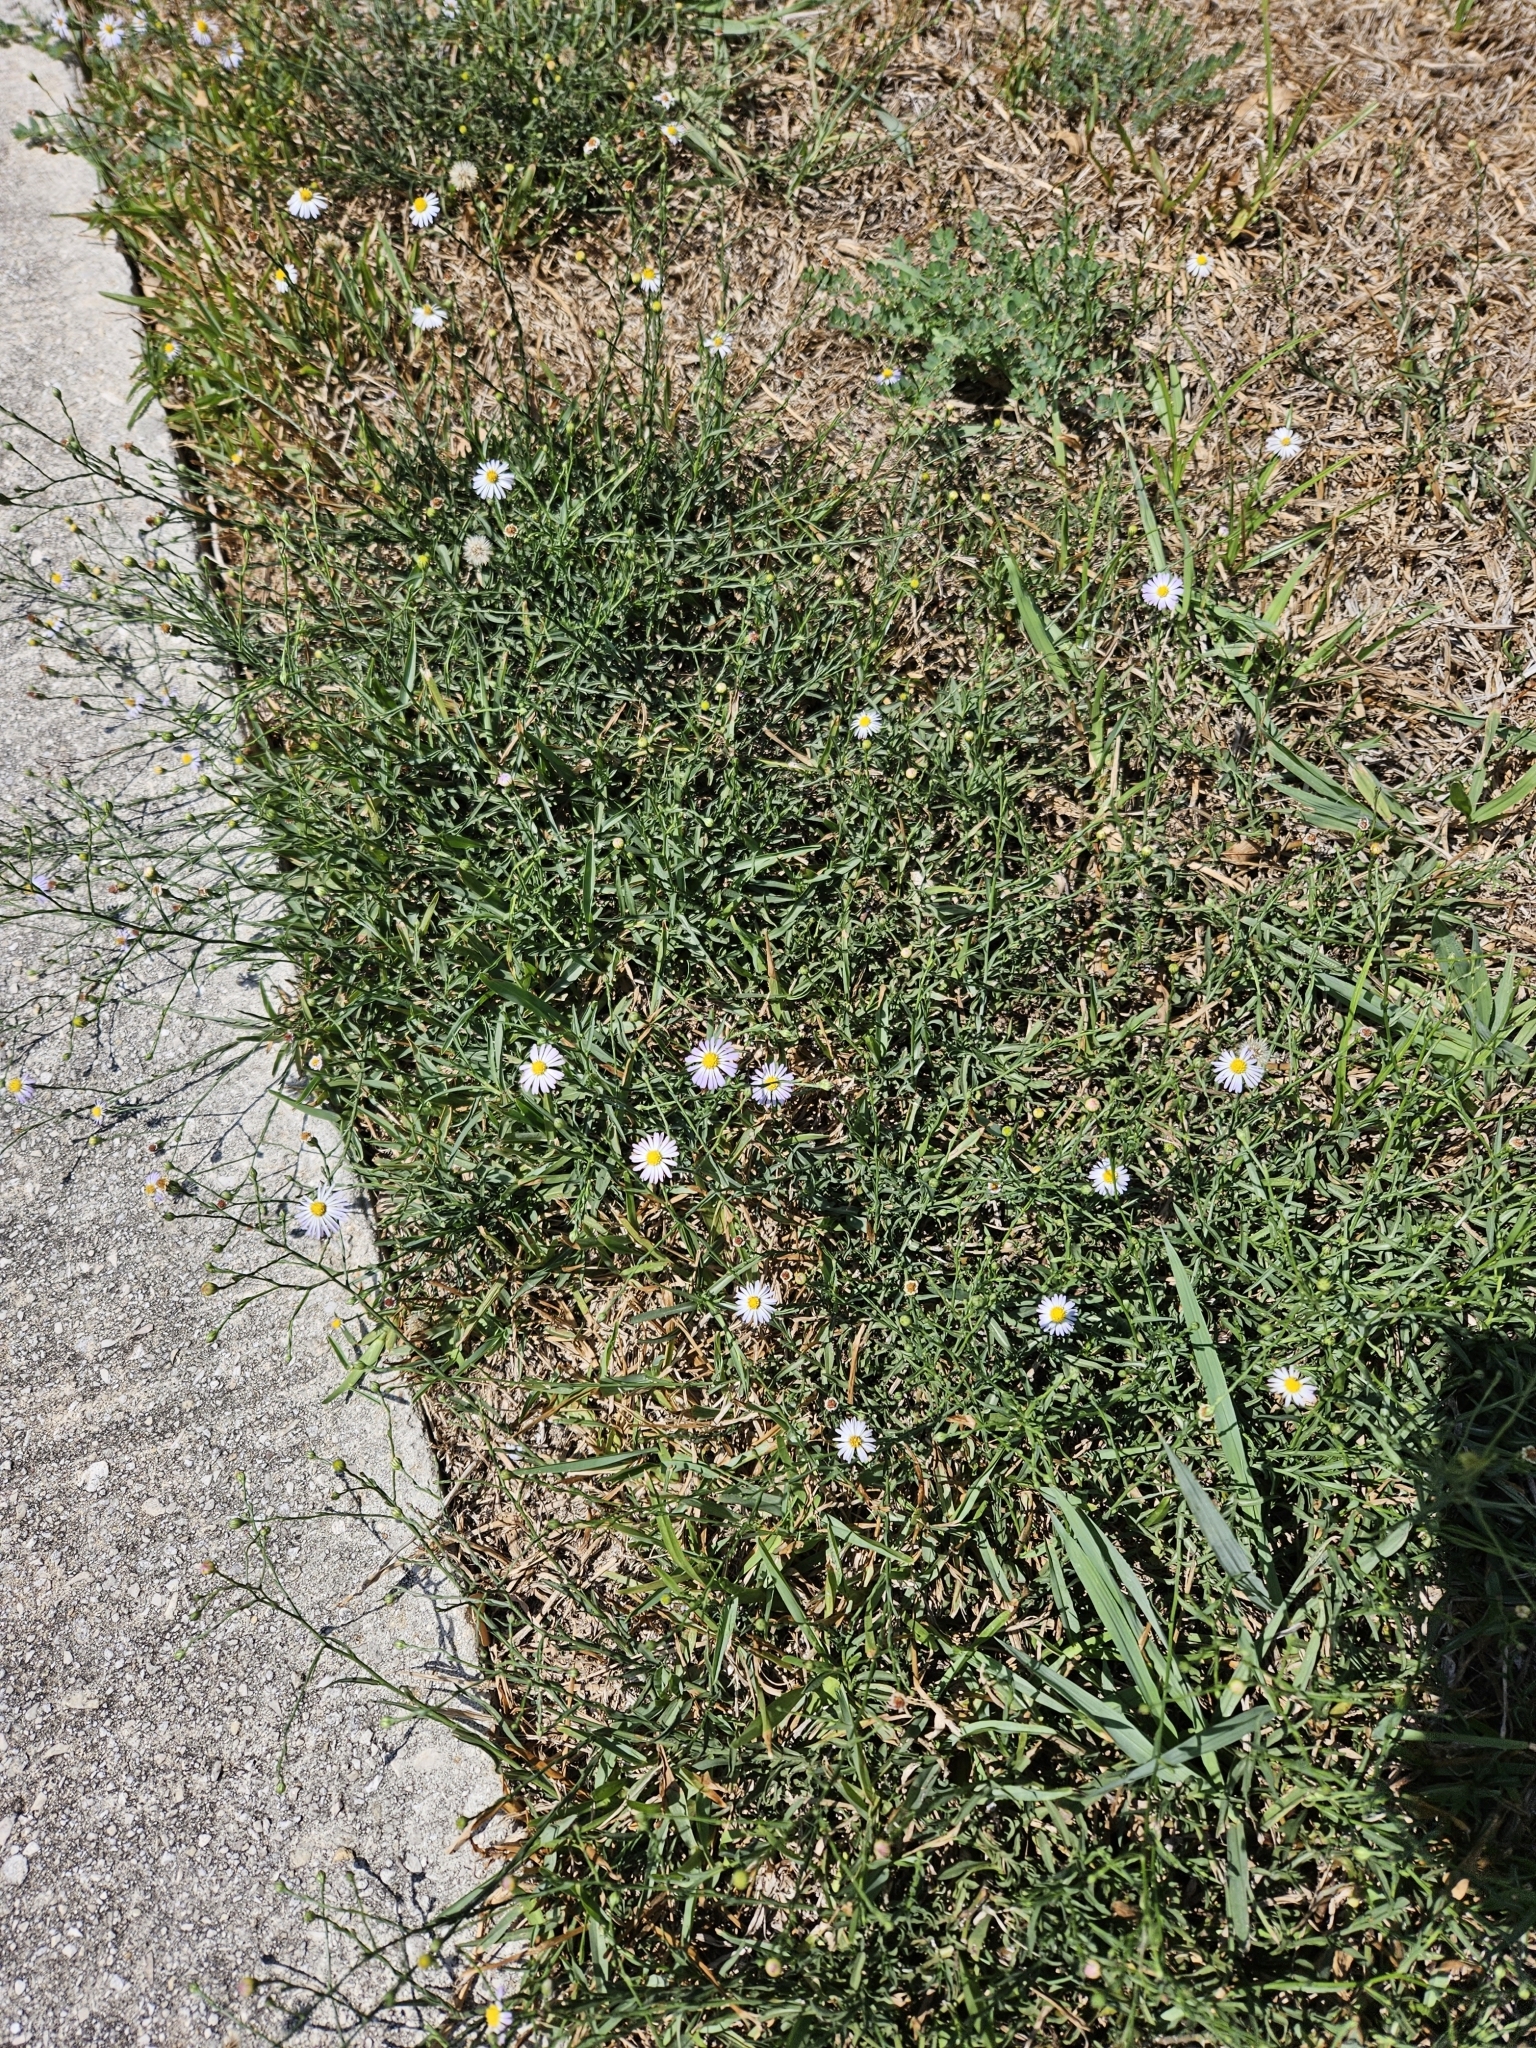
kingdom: Plantae
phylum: Tracheophyta
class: Magnoliopsida
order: Asterales
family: Asteraceae
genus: Symphyotrichum
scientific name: Symphyotrichum divaricatum
